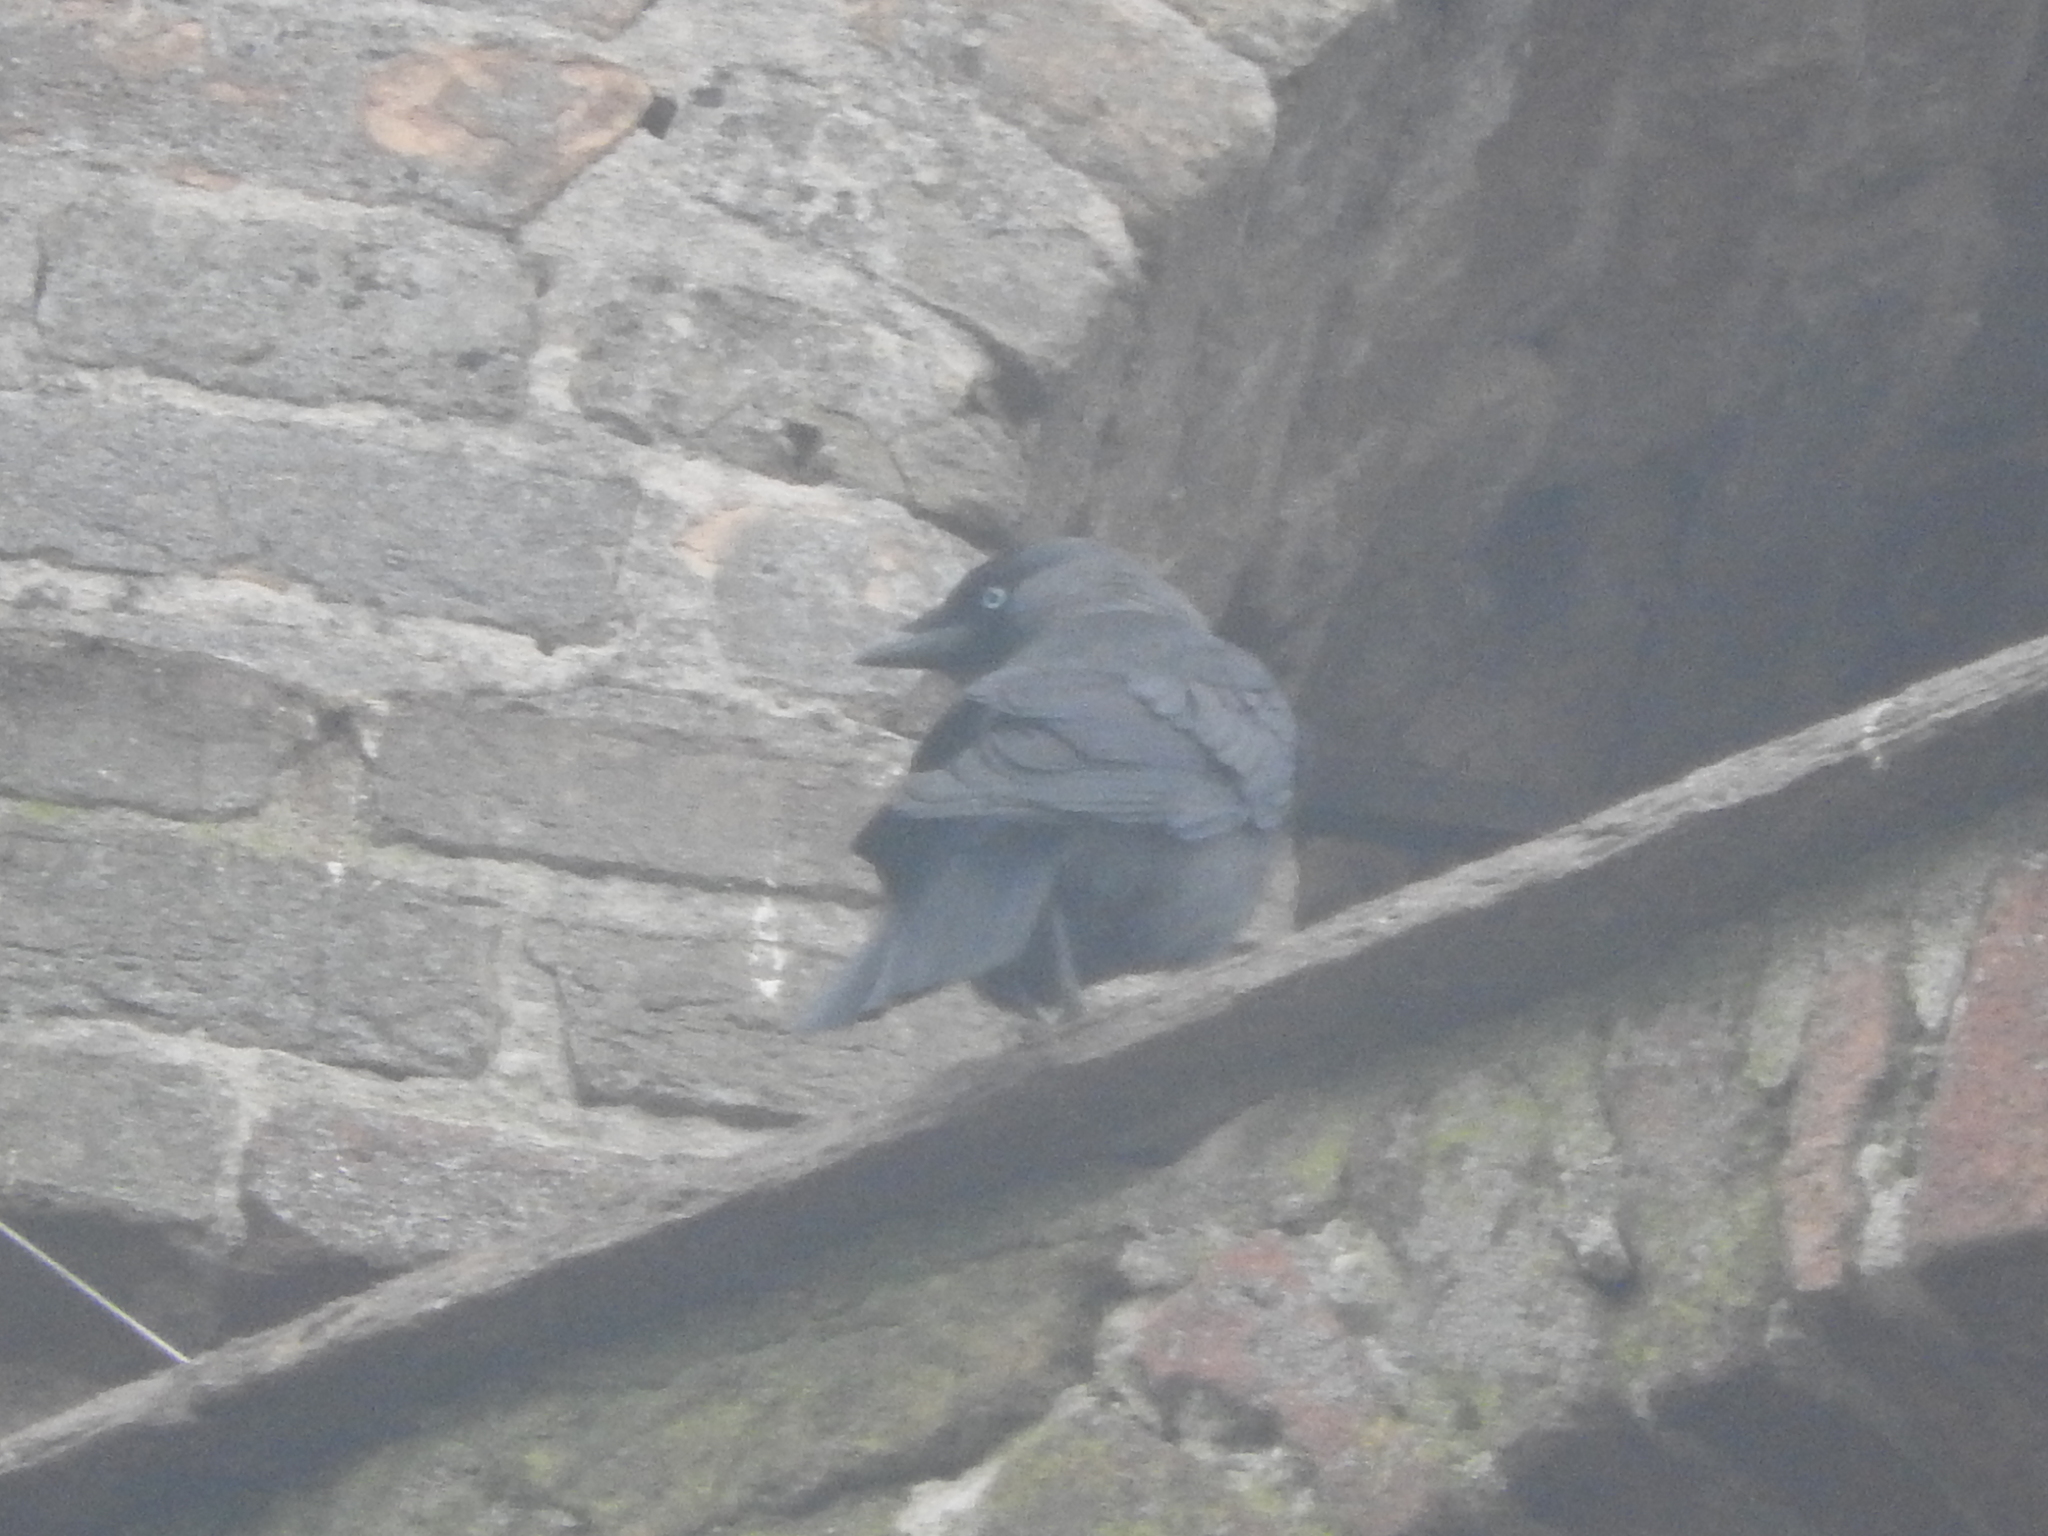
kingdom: Animalia
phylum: Chordata
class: Aves
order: Passeriformes
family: Corvidae
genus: Coloeus
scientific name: Coloeus monedula
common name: Western jackdaw
